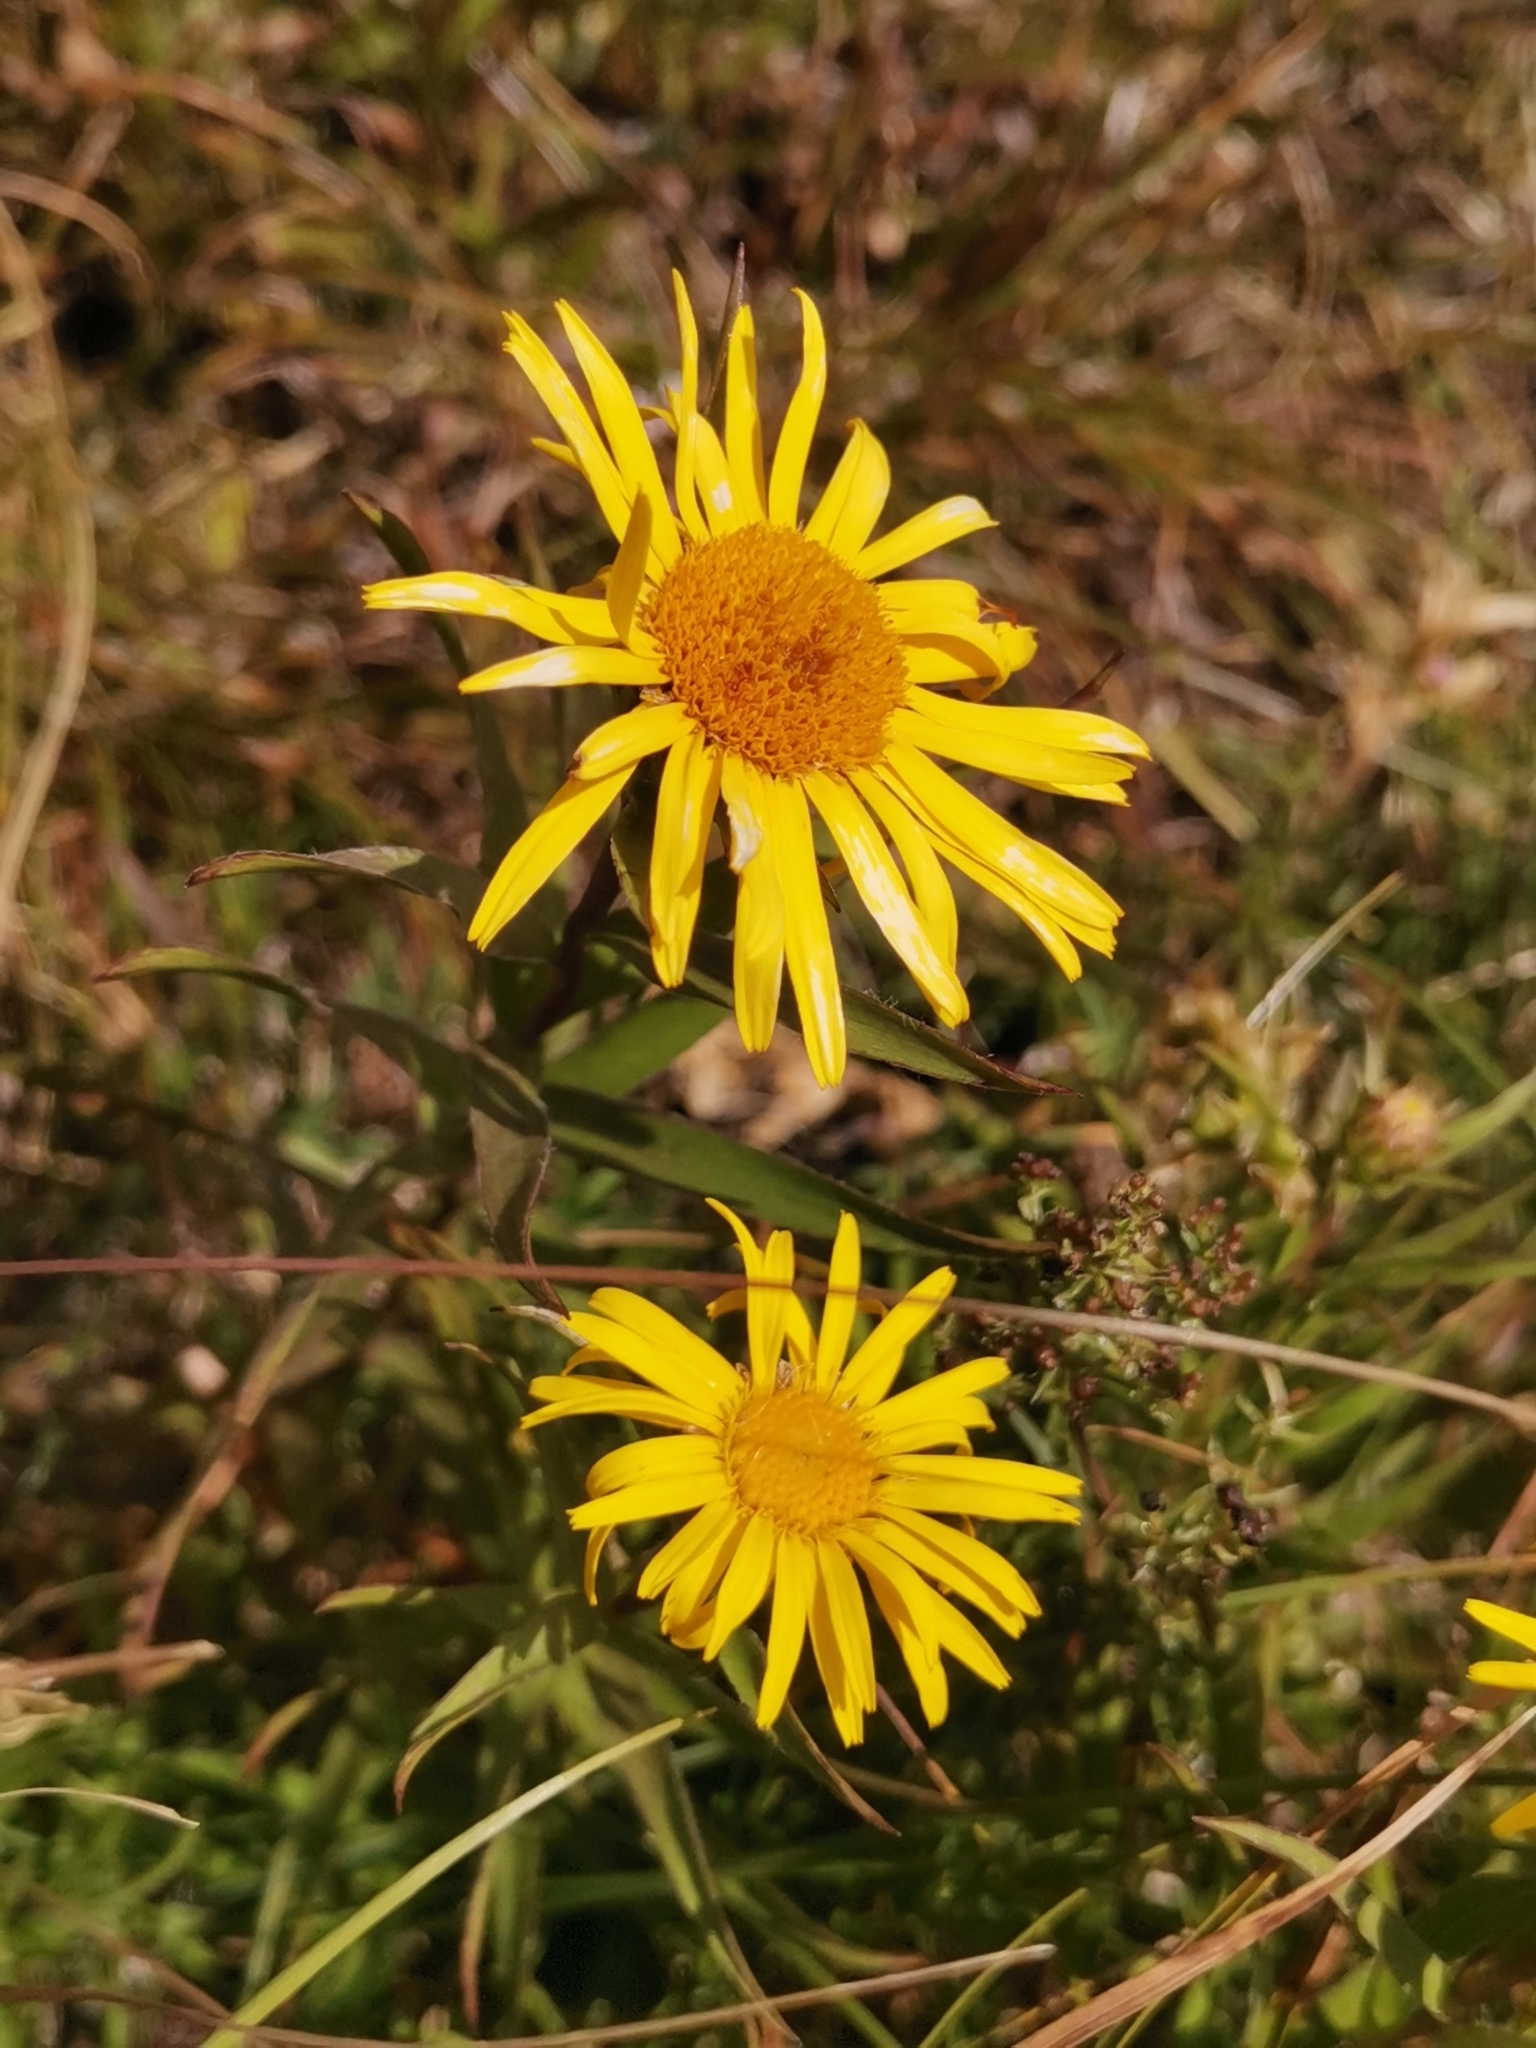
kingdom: Plantae
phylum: Tracheophyta
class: Magnoliopsida
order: Asterales
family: Asteraceae
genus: Pentanema
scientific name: Pentanema ensifolium
